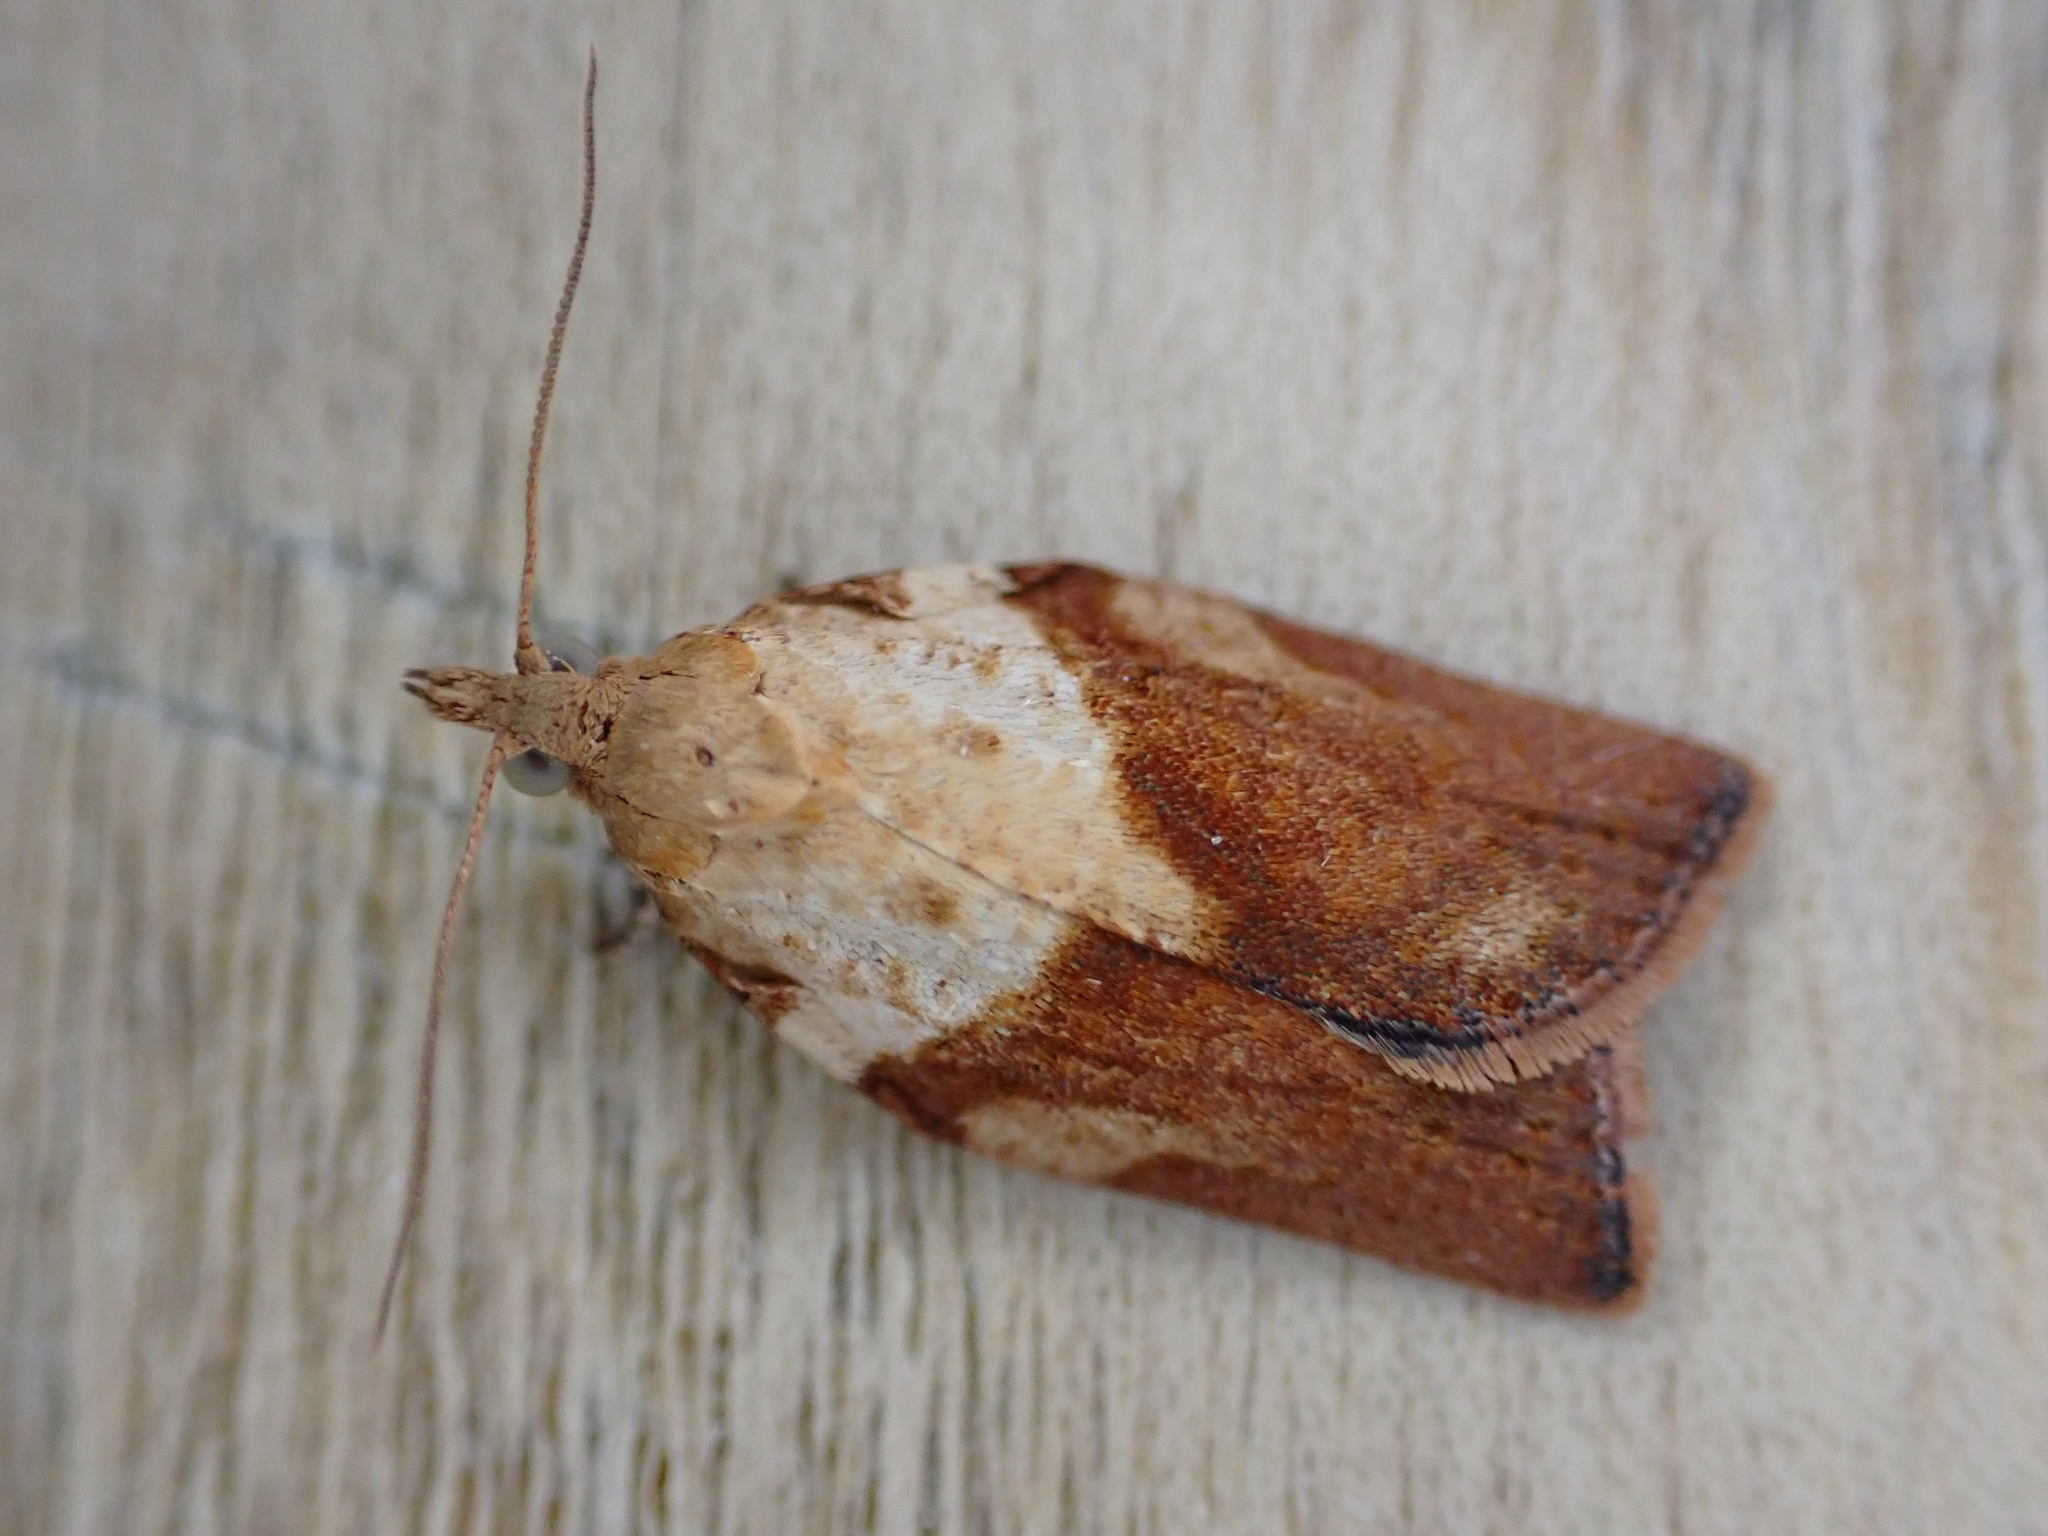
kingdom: Animalia
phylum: Arthropoda
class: Insecta
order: Lepidoptera
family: Tortricidae
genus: Epiphyas
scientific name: Epiphyas postvittana
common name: Light brown apple moth
